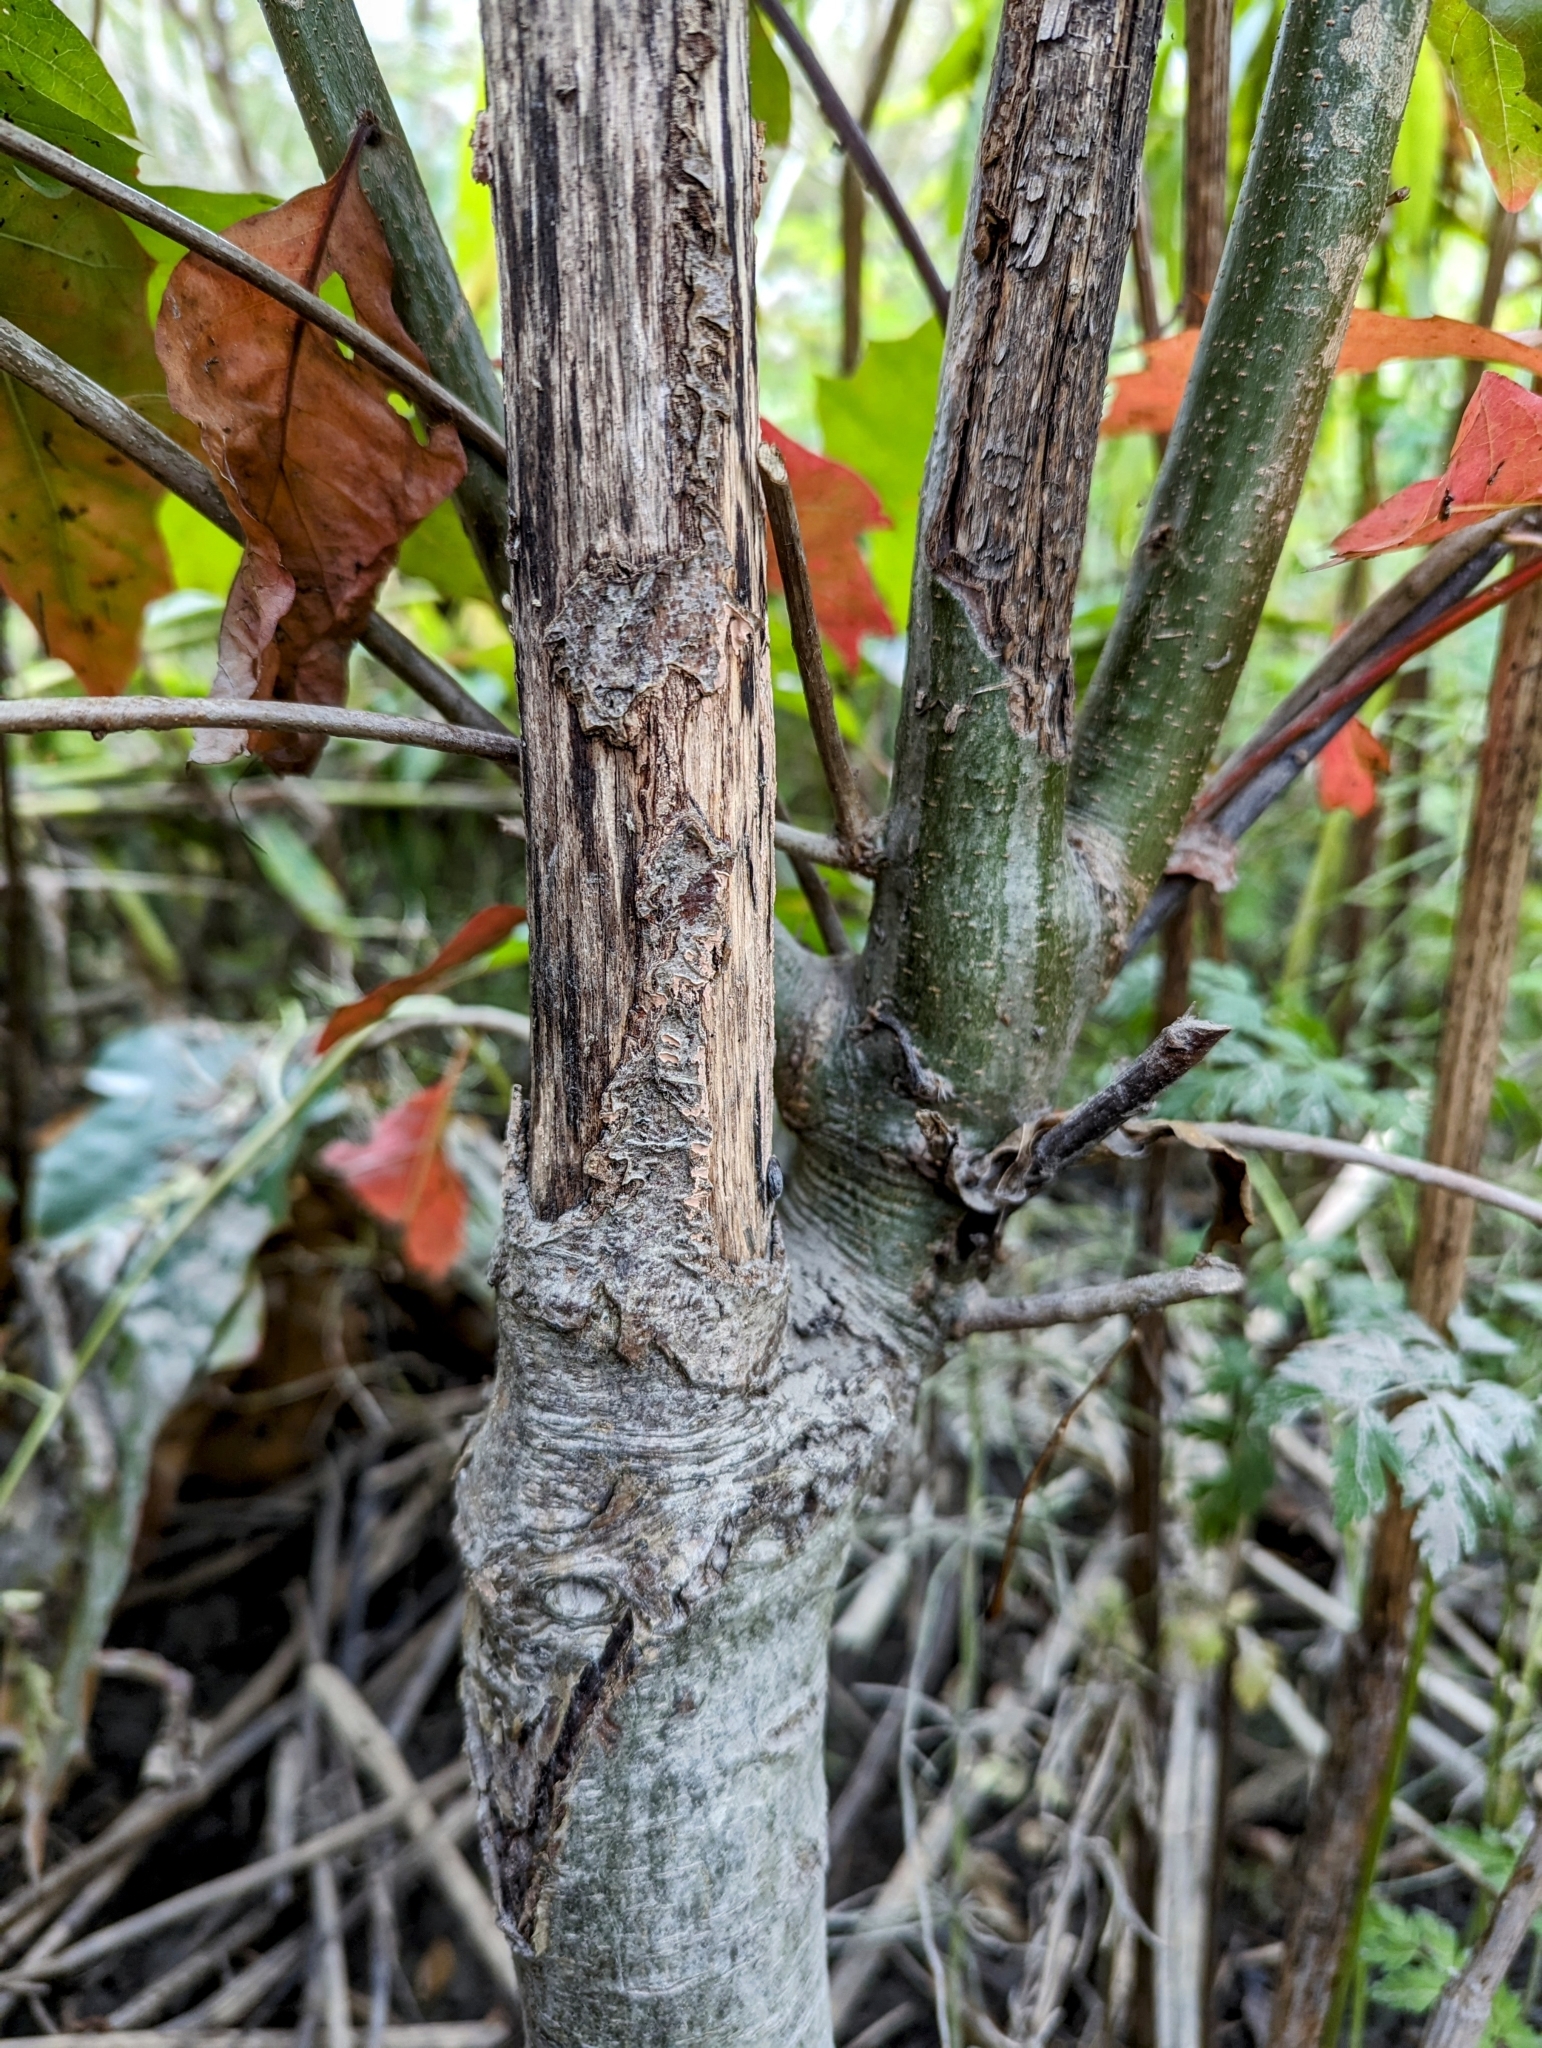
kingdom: Plantae
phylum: Tracheophyta
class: Magnoliopsida
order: Fagales
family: Fagaceae
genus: Quercus
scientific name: Quercus rubra
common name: Red oak
